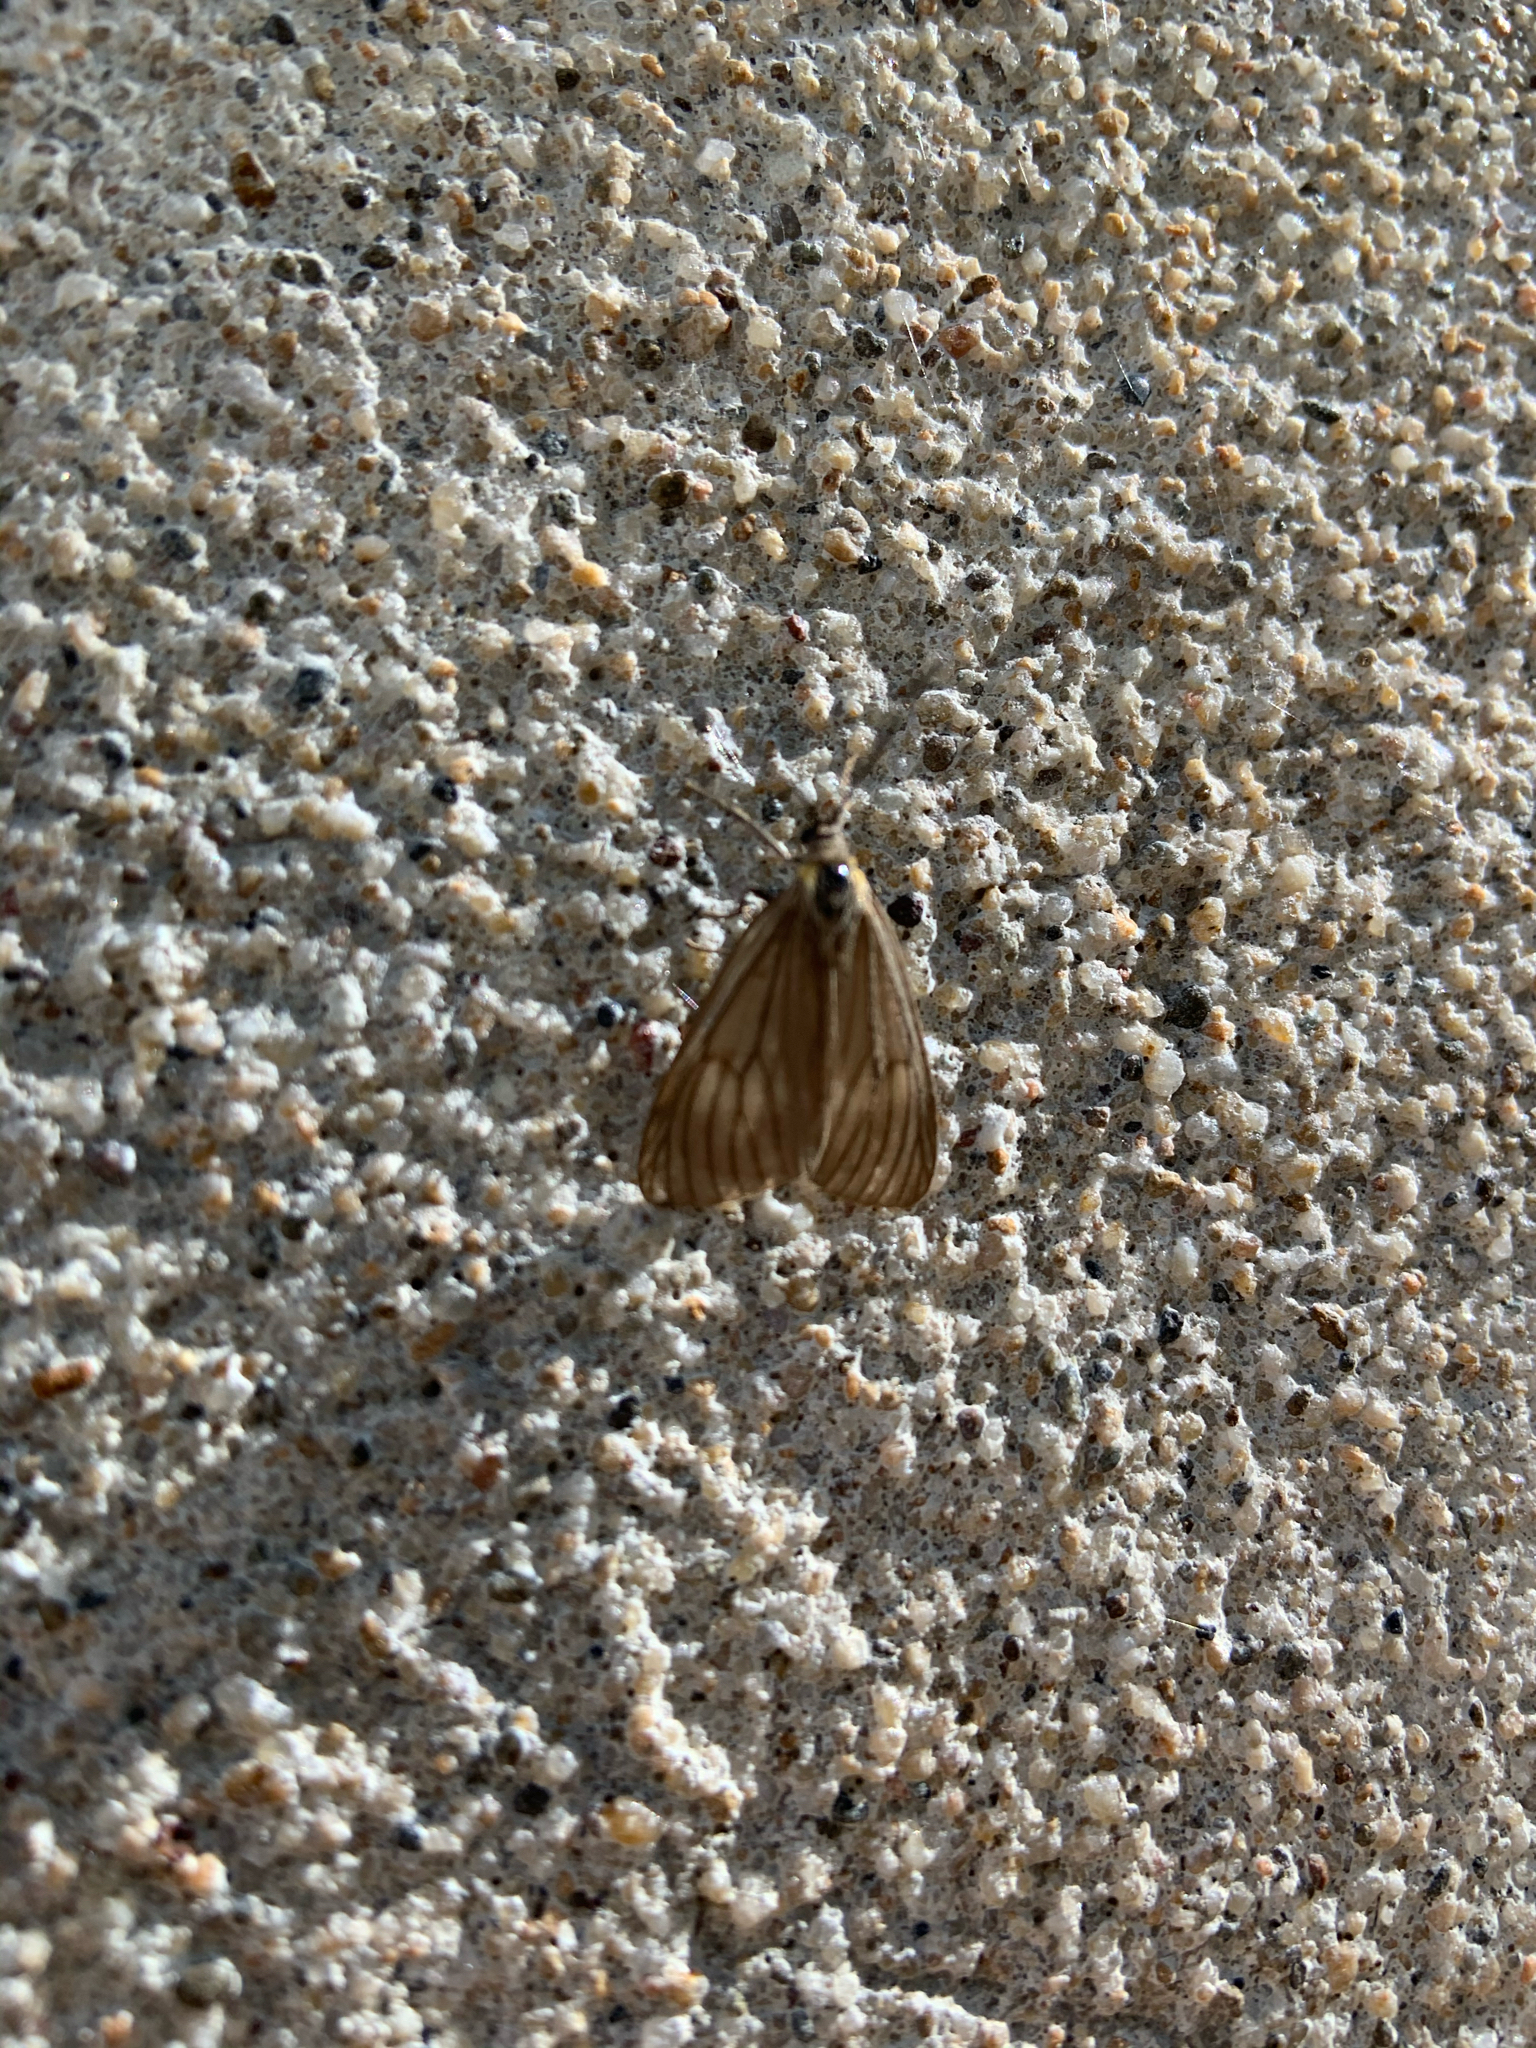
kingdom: Animalia
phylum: Arthropoda
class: Insecta
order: Lepidoptera
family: Notodontidae
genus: Phryganidia
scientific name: Phryganidia californica
